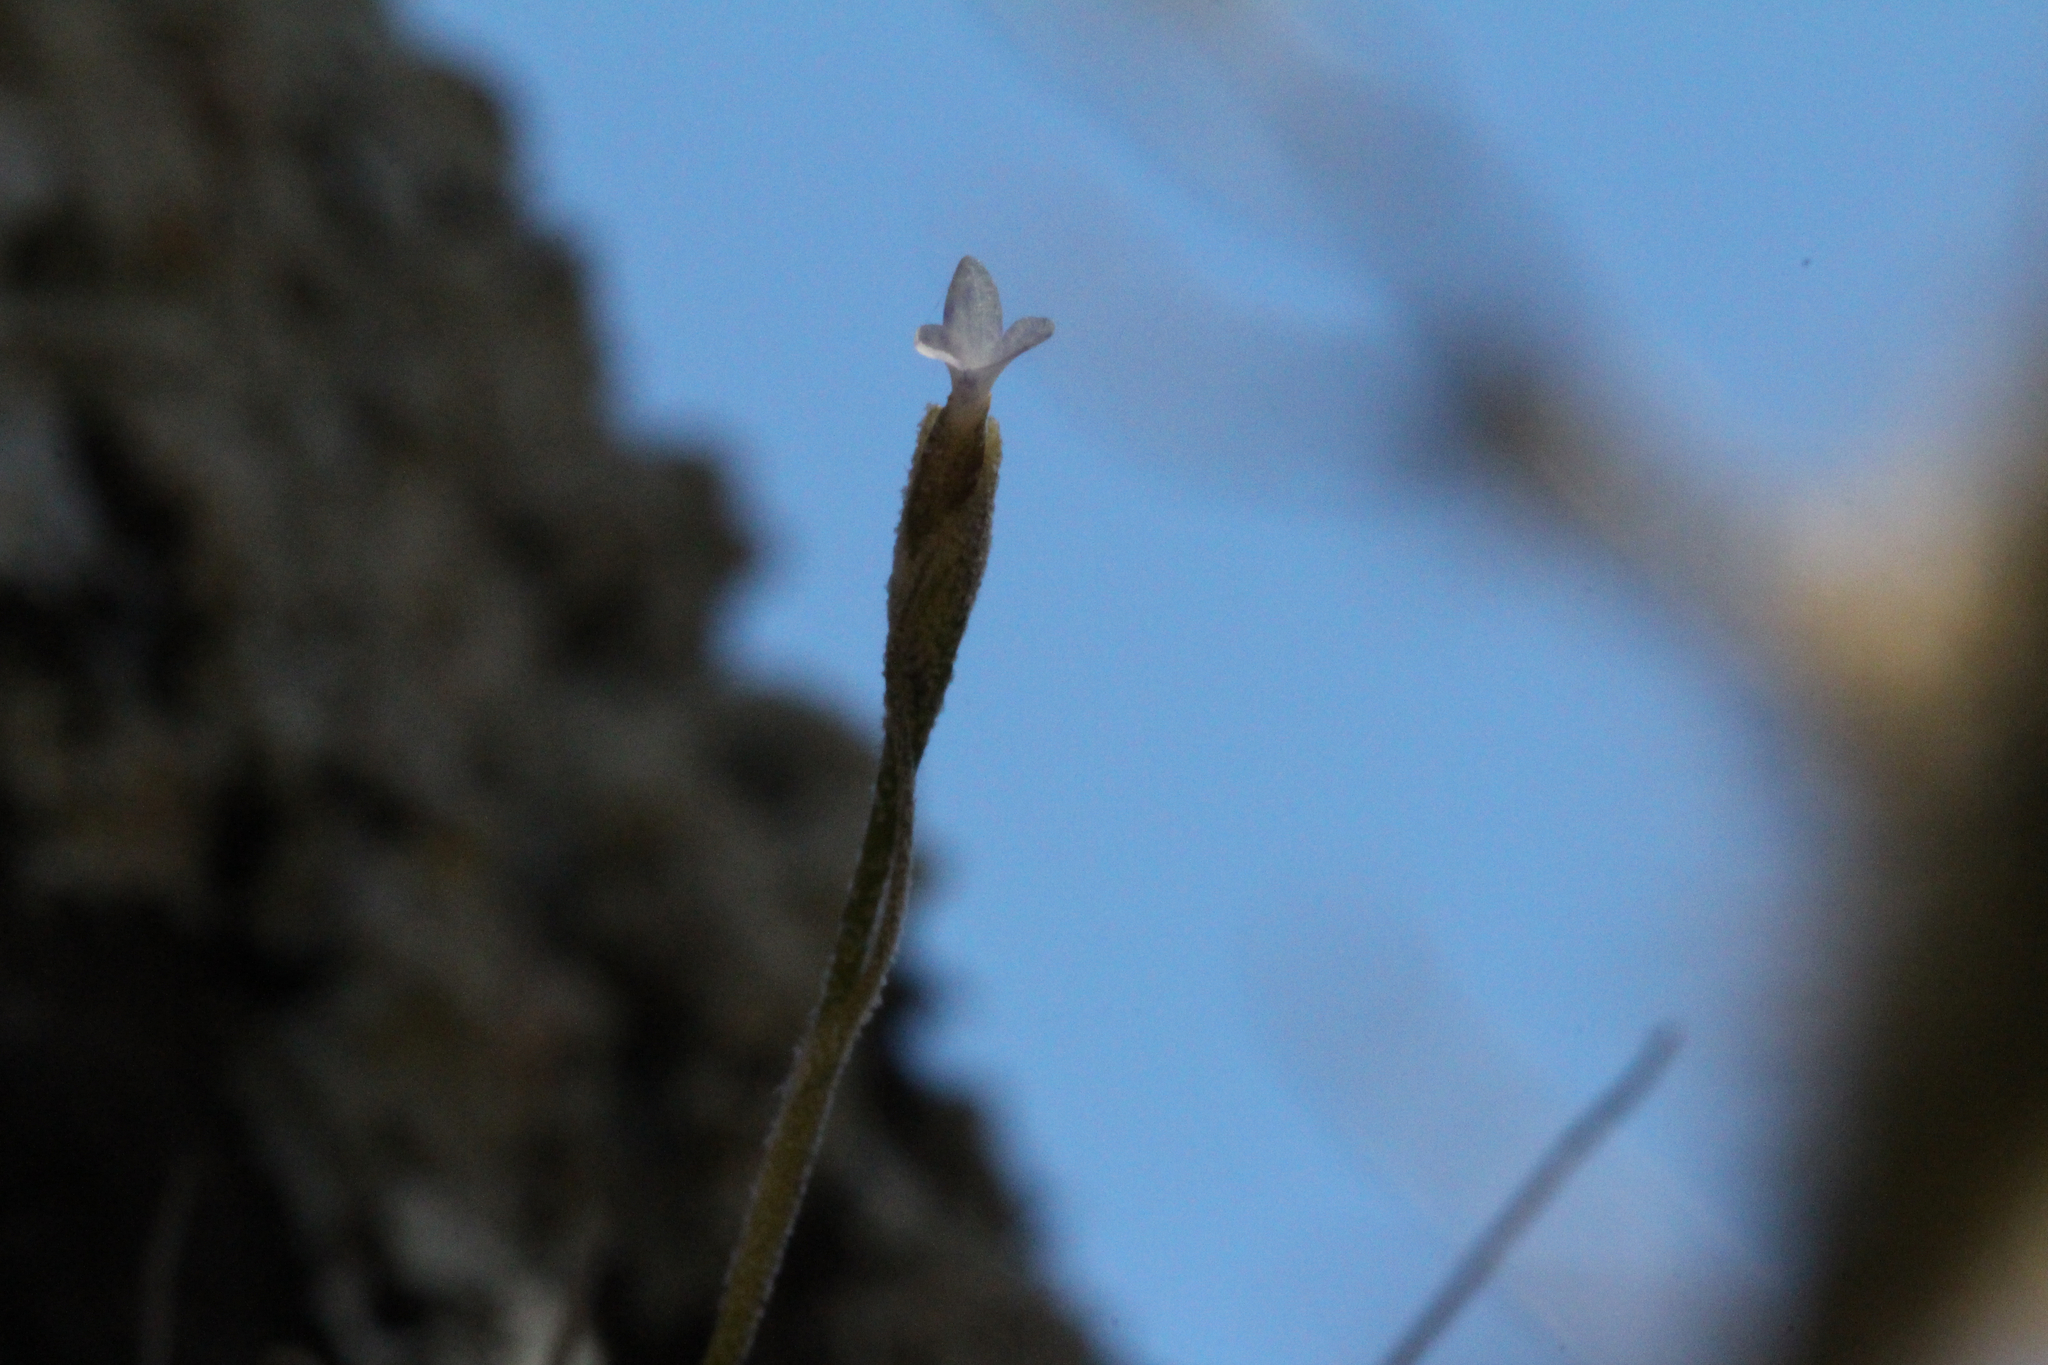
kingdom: Plantae
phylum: Tracheophyta
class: Liliopsida
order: Poales
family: Bromeliaceae
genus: Tillandsia
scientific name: Tillandsia recurvata
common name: Small ballmoss
